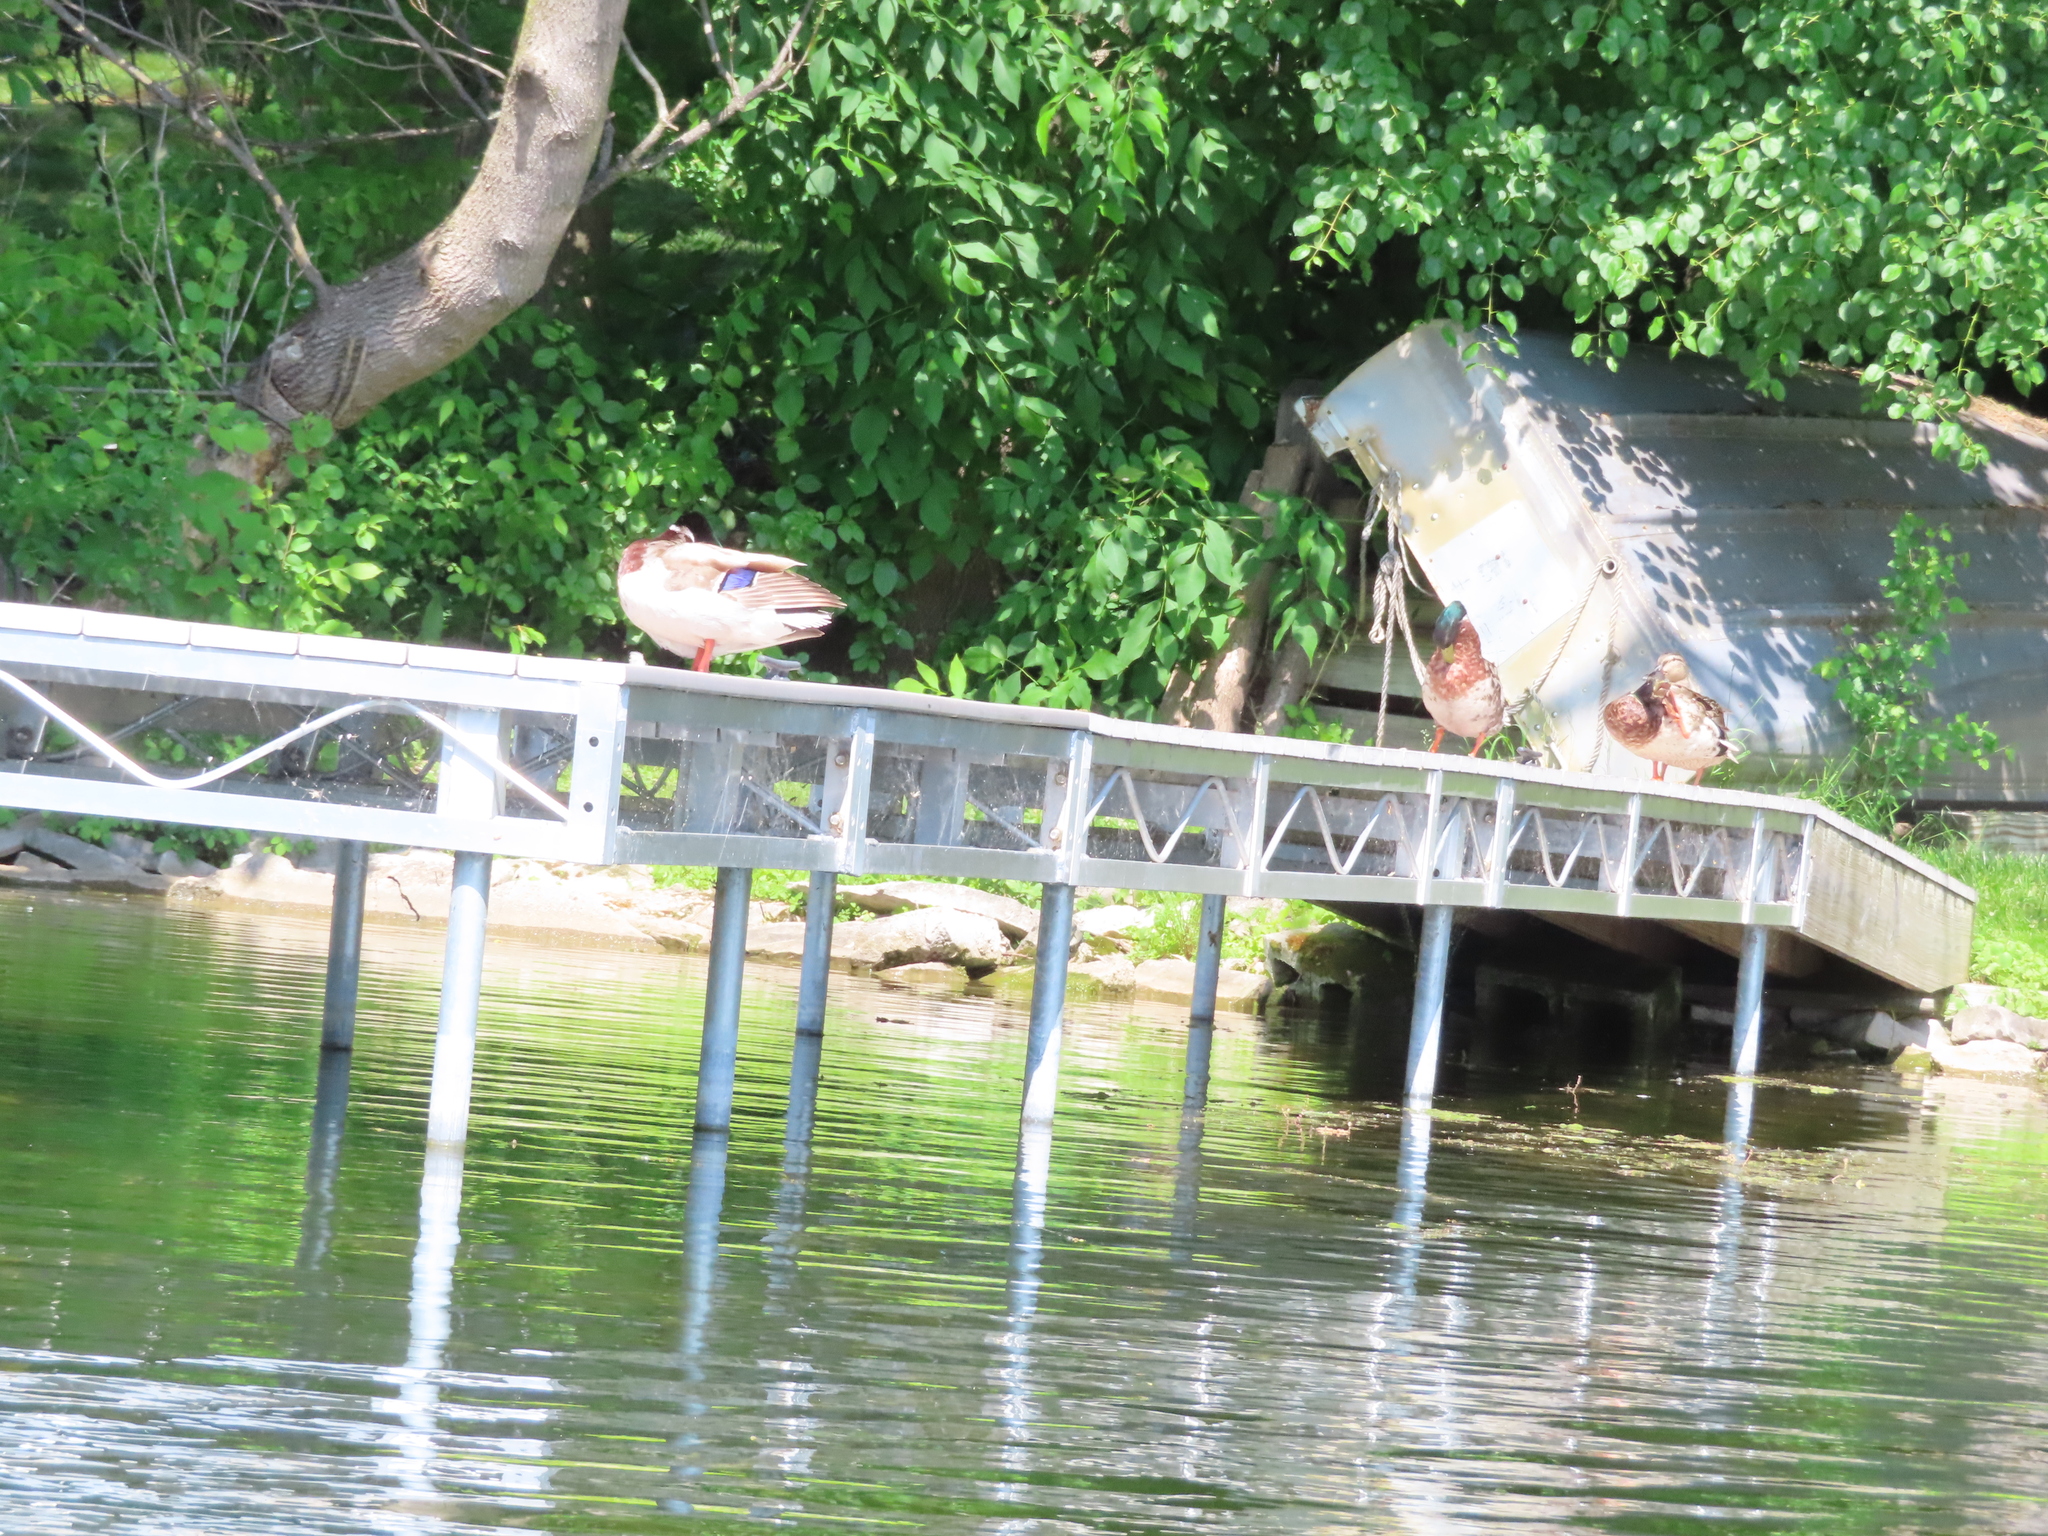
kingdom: Animalia
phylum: Chordata
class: Aves
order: Anseriformes
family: Anatidae
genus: Anas
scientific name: Anas platyrhynchos
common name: Mallard
